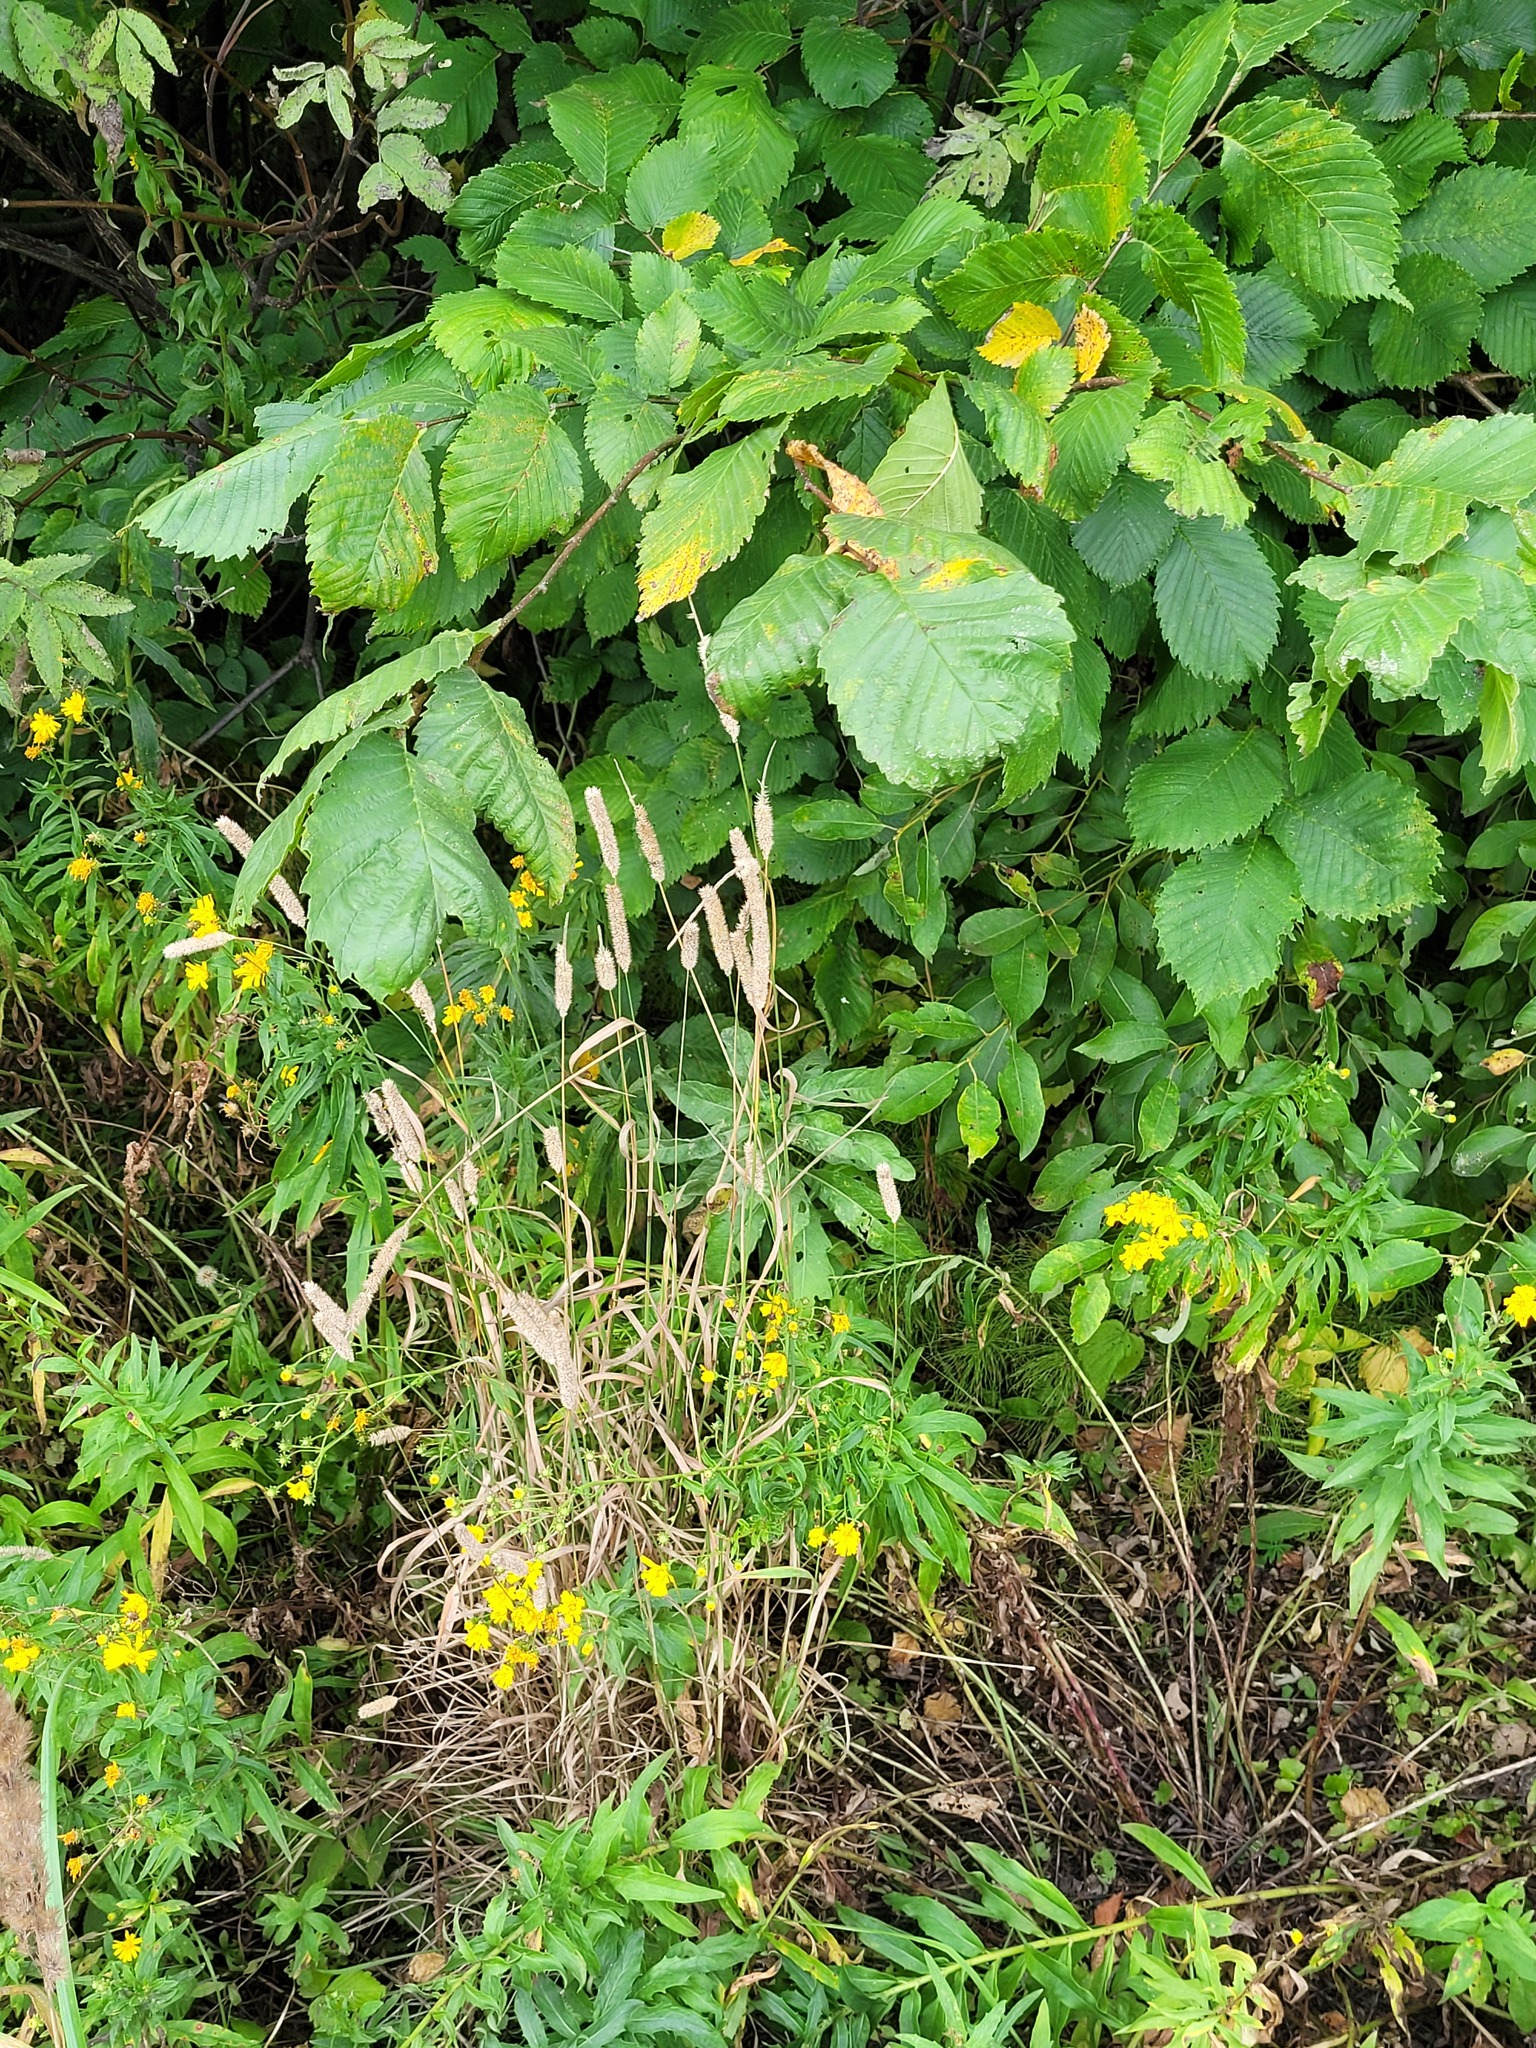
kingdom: Plantae
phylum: Tracheophyta
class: Liliopsida
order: Poales
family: Poaceae
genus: Phleum
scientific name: Phleum pratense
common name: Timothy grass
